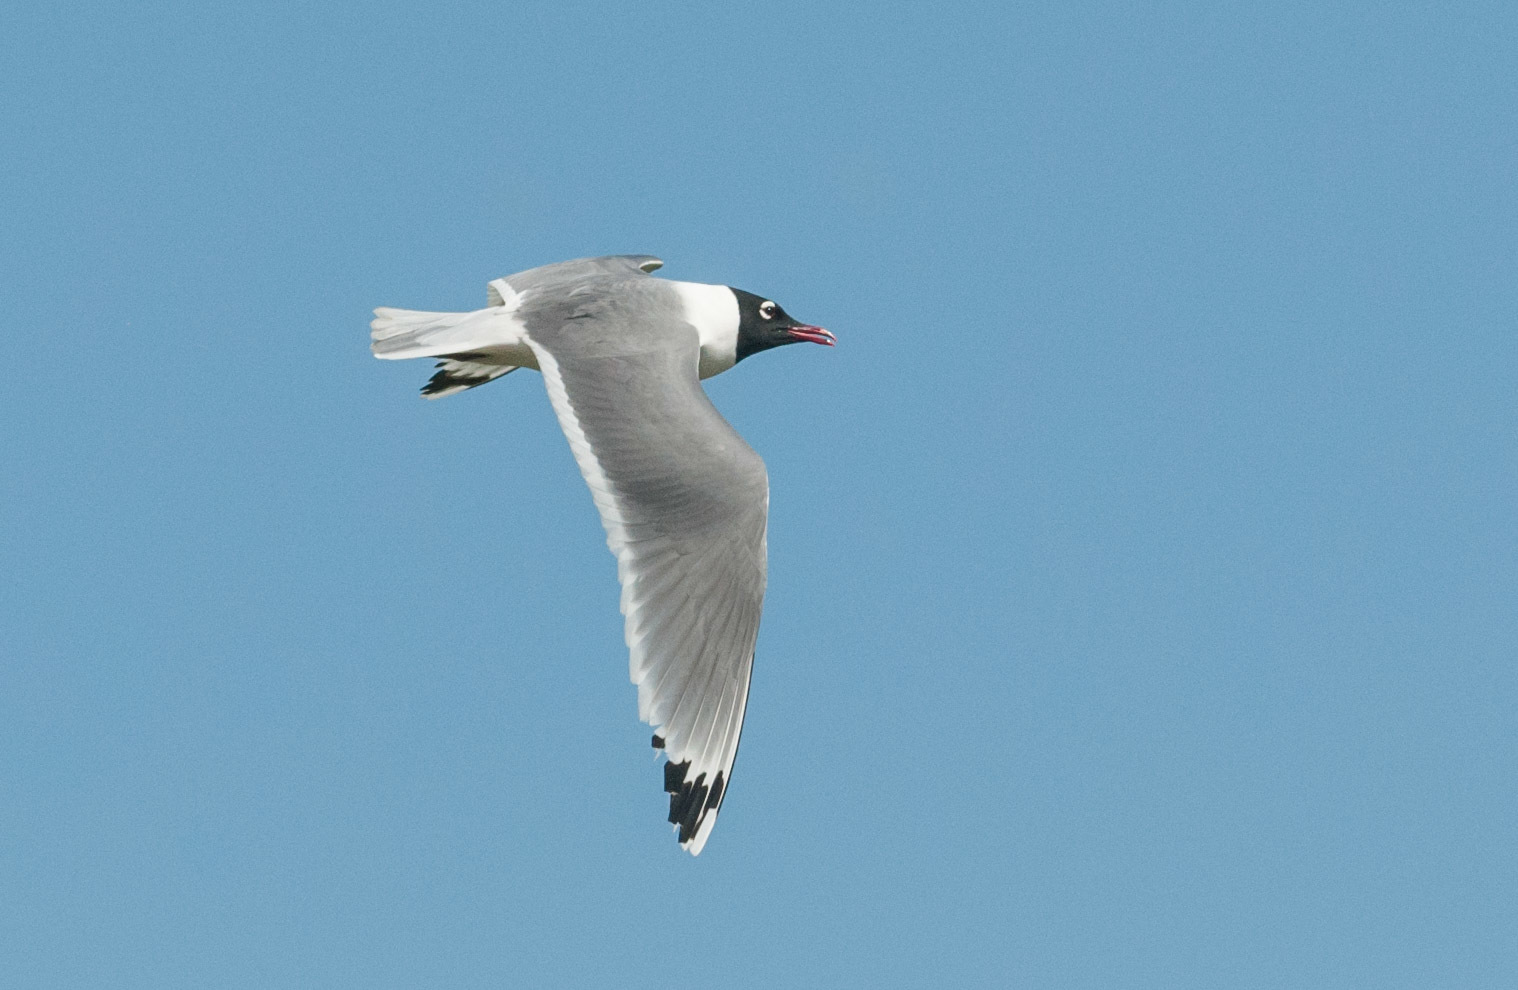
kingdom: Animalia
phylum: Chordata
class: Aves
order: Charadriiformes
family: Laridae
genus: Leucophaeus
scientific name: Leucophaeus pipixcan
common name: Franklin's gull
